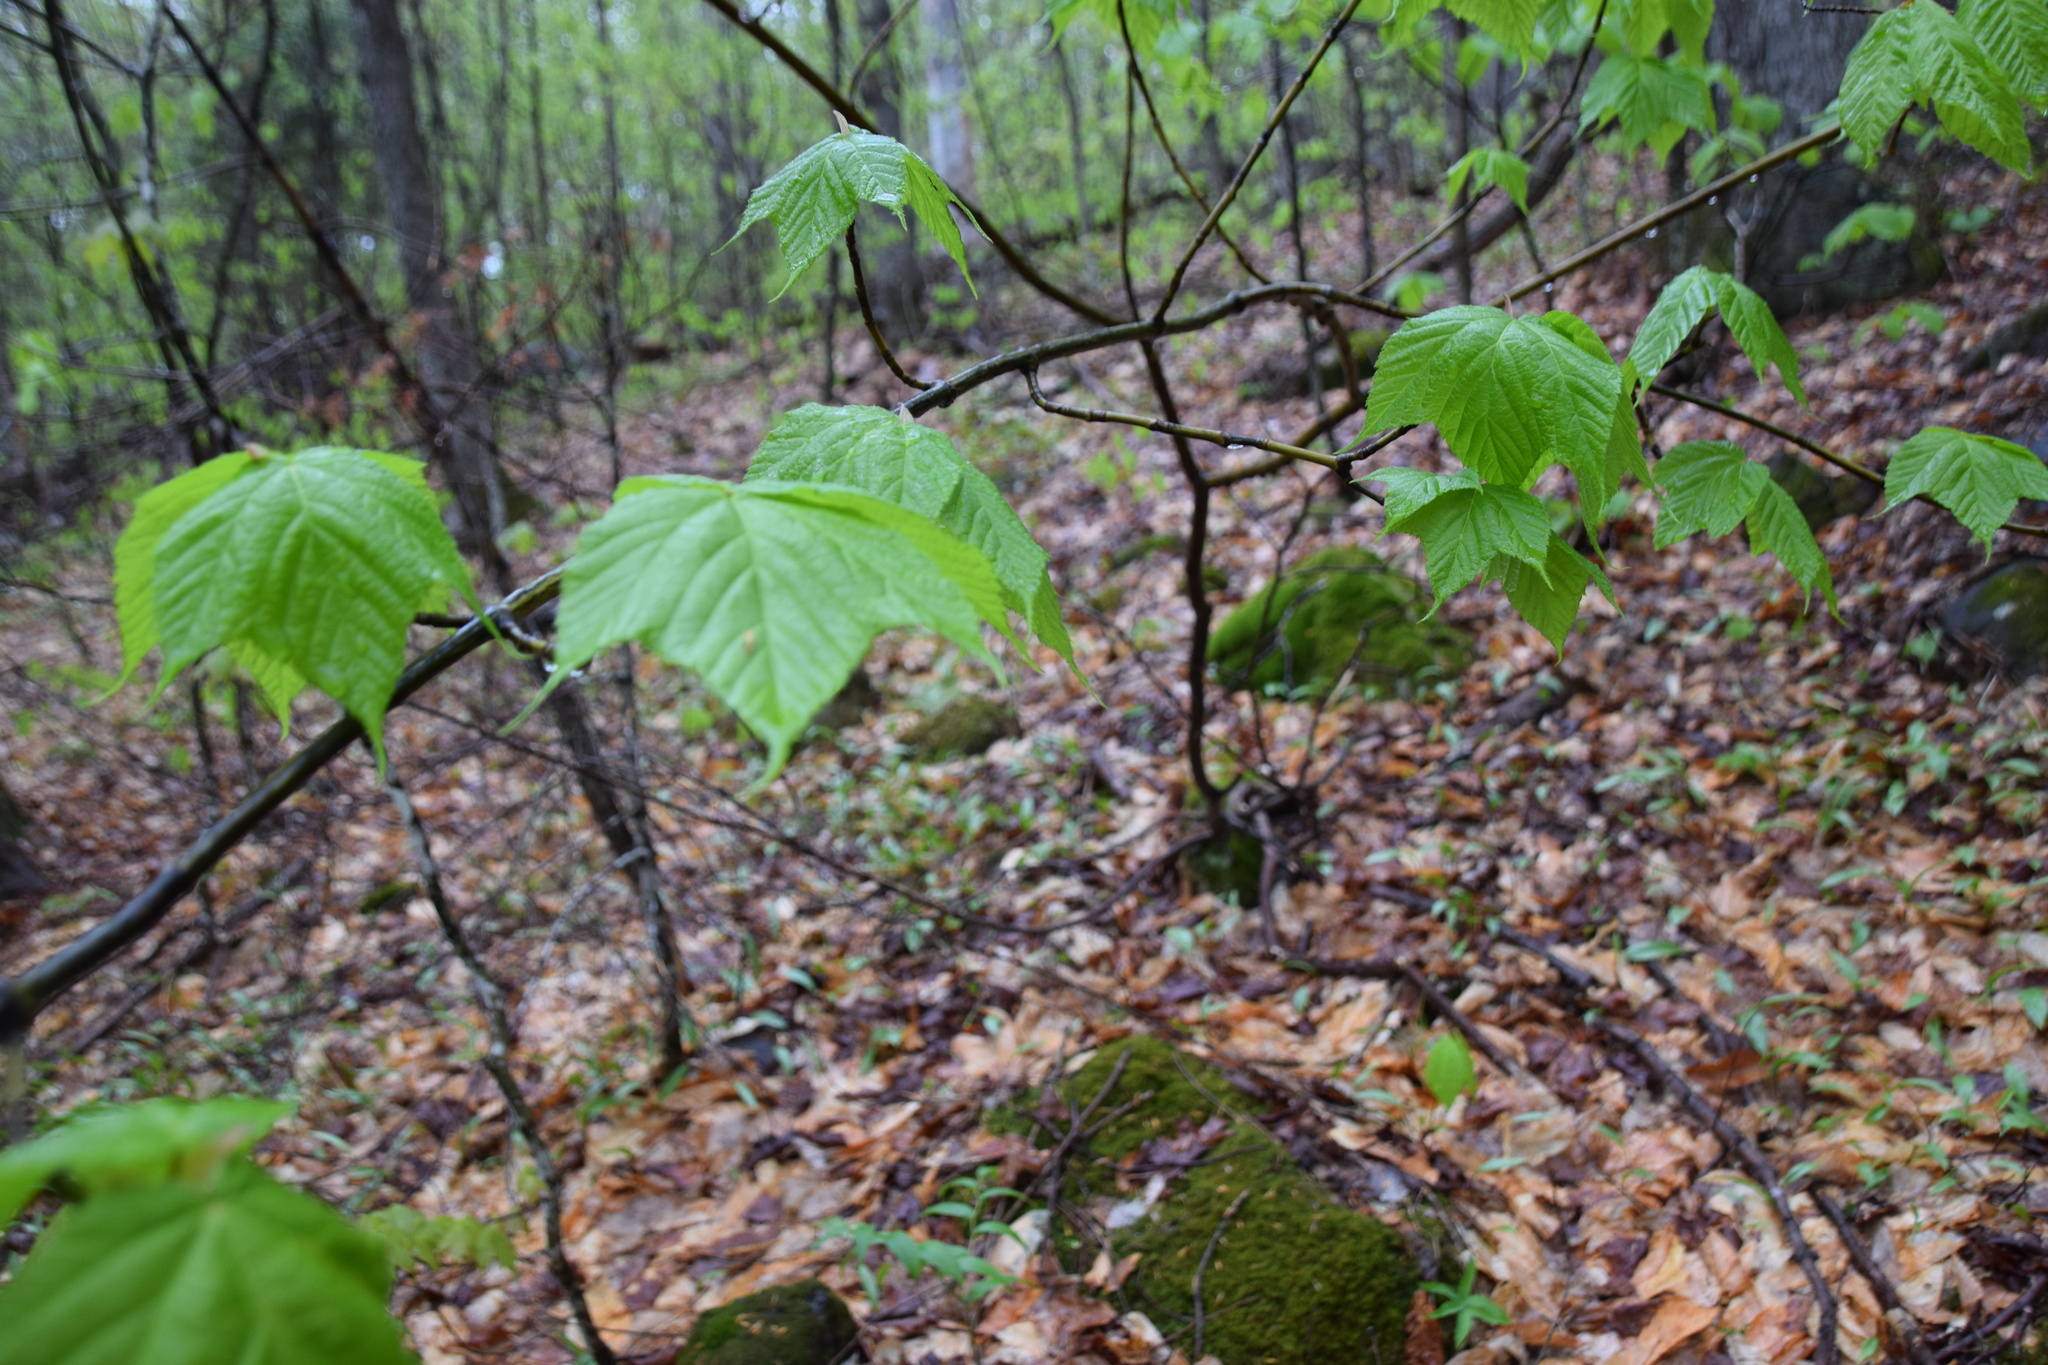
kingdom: Plantae
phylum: Tracheophyta
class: Magnoliopsida
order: Sapindales
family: Sapindaceae
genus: Acer
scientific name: Acer pensylvanicum
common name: Moosewood
